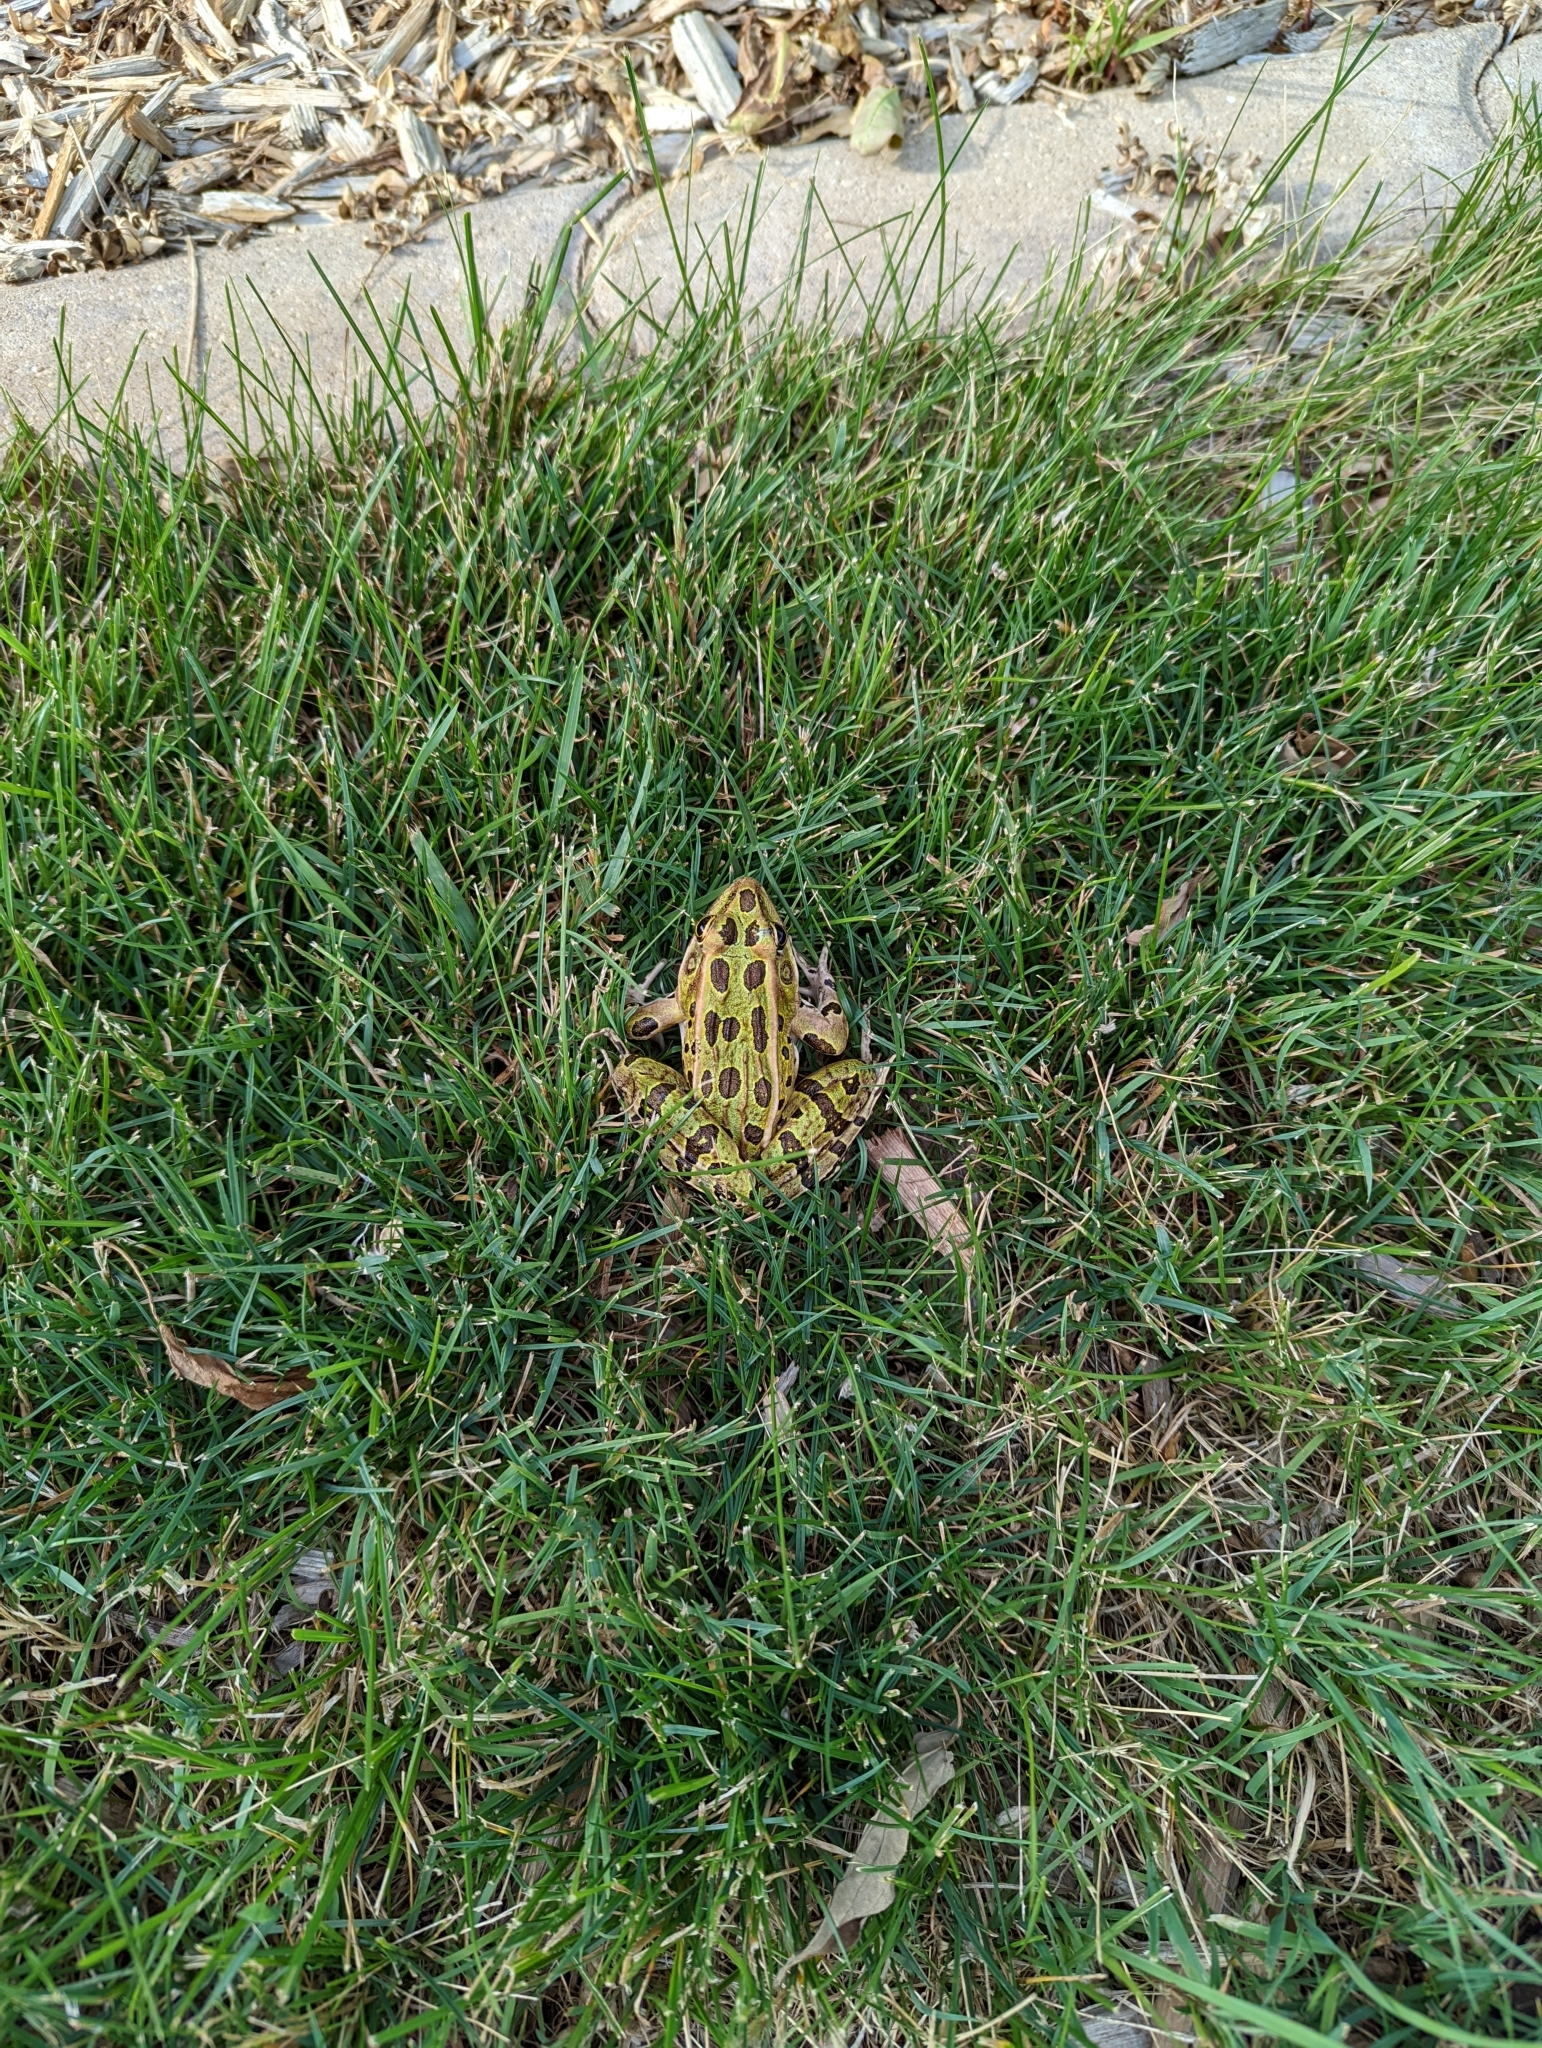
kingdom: Animalia
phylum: Chordata
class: Amphibia
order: Anura
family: Ranidae
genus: Lithobates
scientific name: Lithobates pipiens
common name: Northern leopard frog
